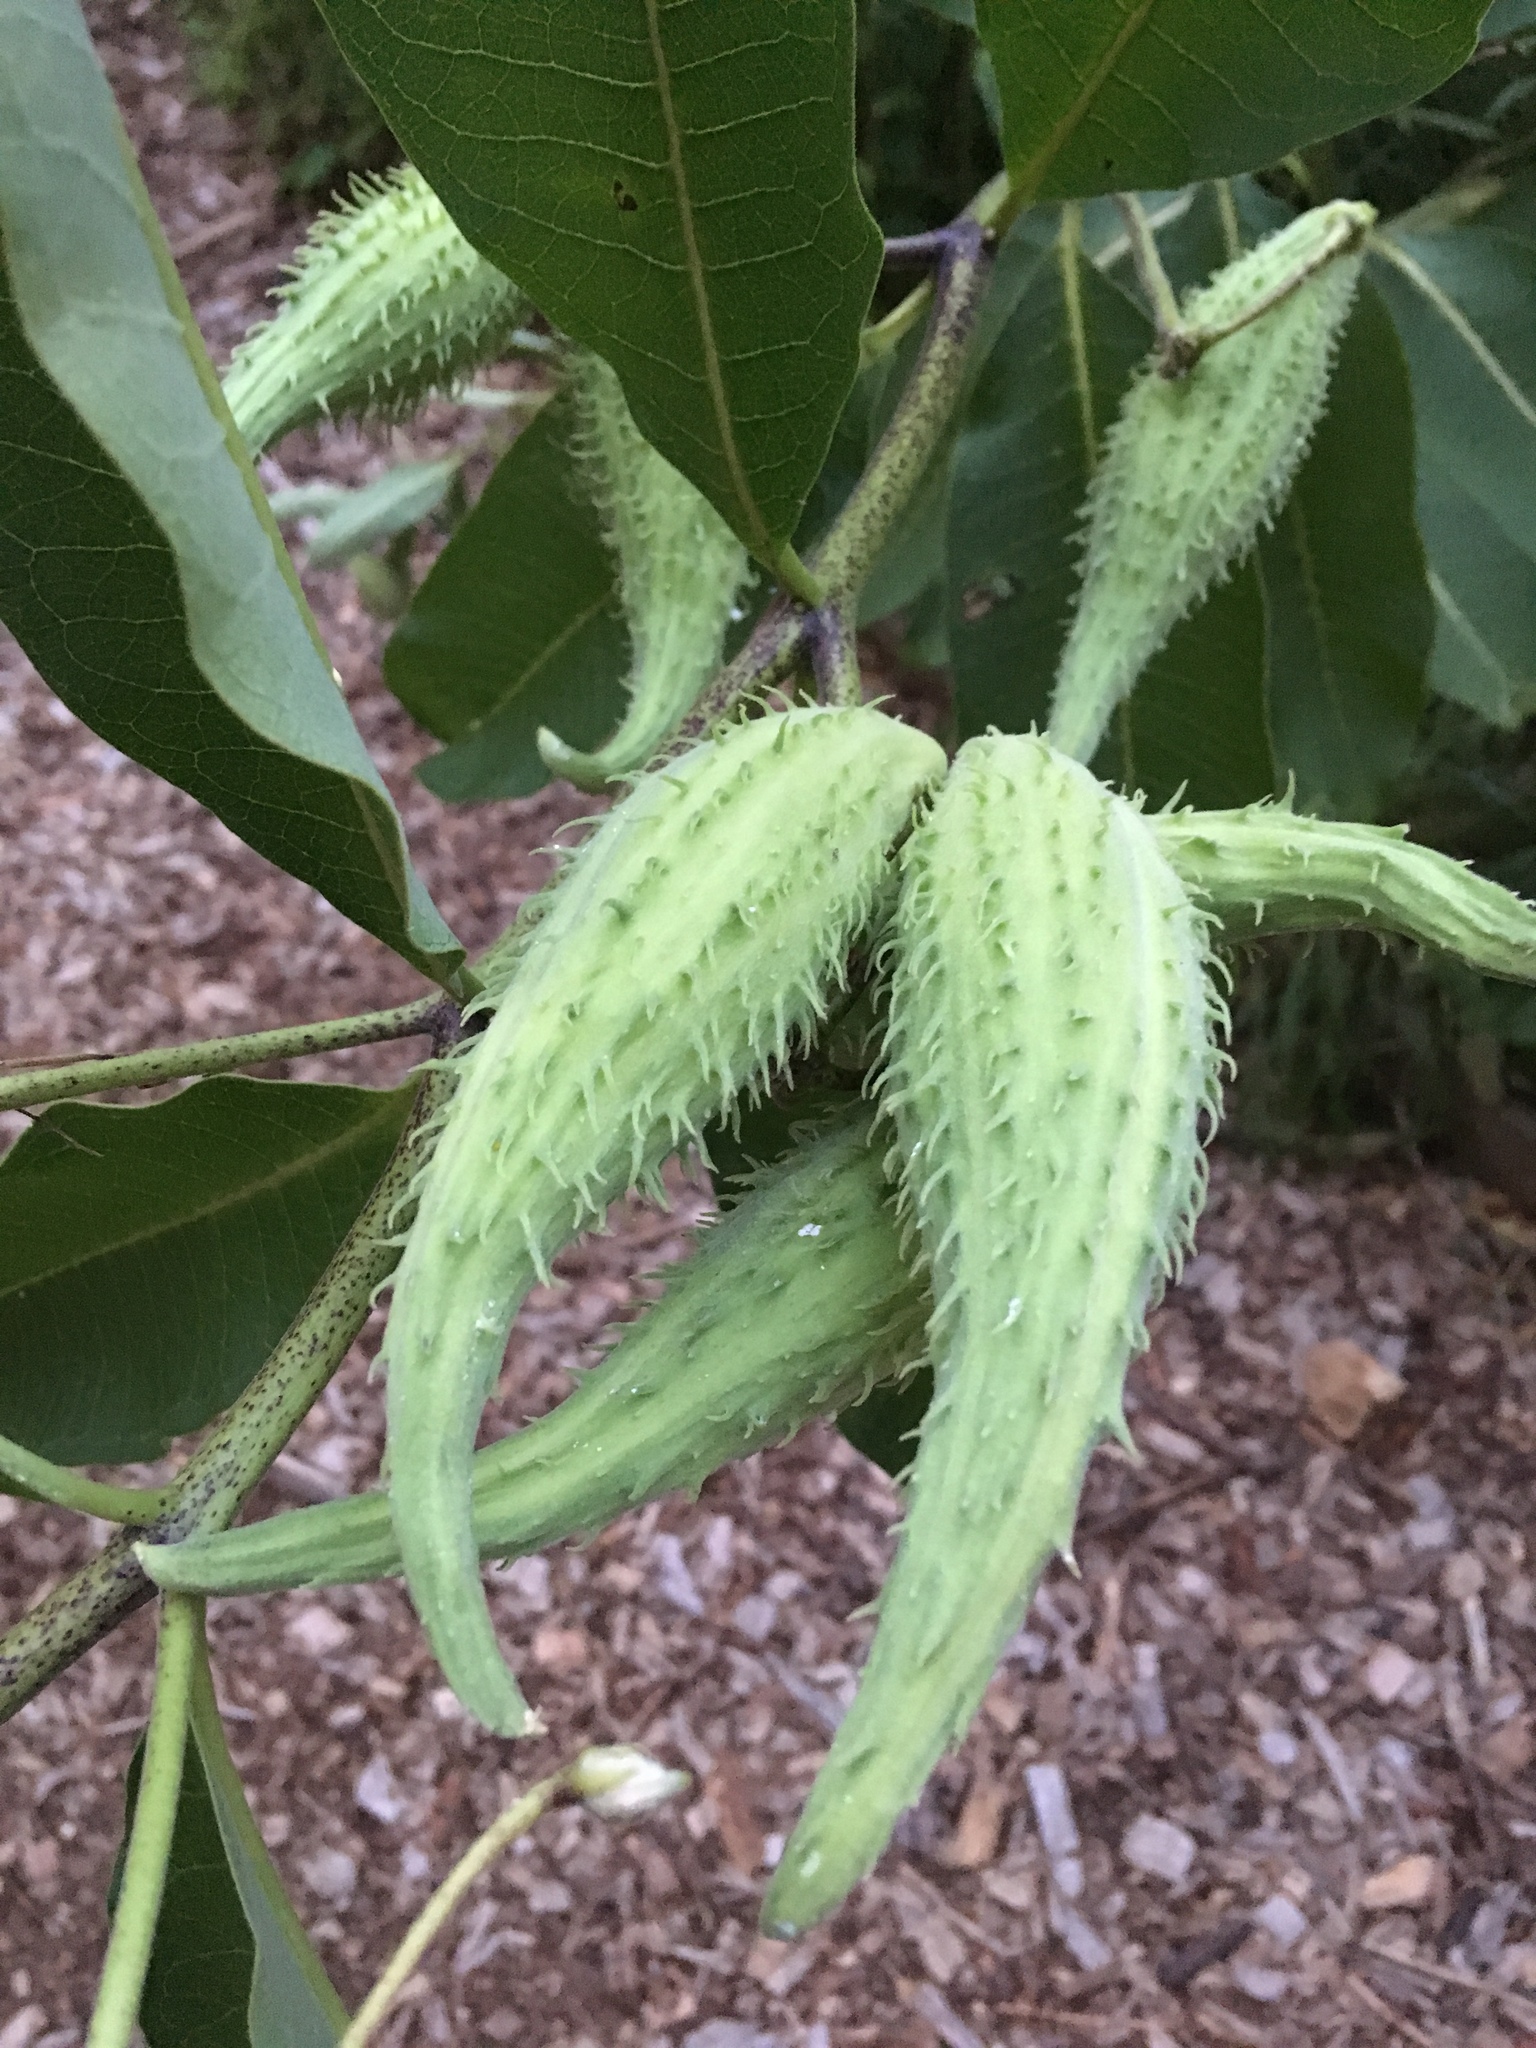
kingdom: Plantae
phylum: Tracheophyta
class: Magnoliopsida
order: Gentianales
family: Apocynaceae
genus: Asclepias
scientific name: Asclepias syriaca
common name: Common milkweed
